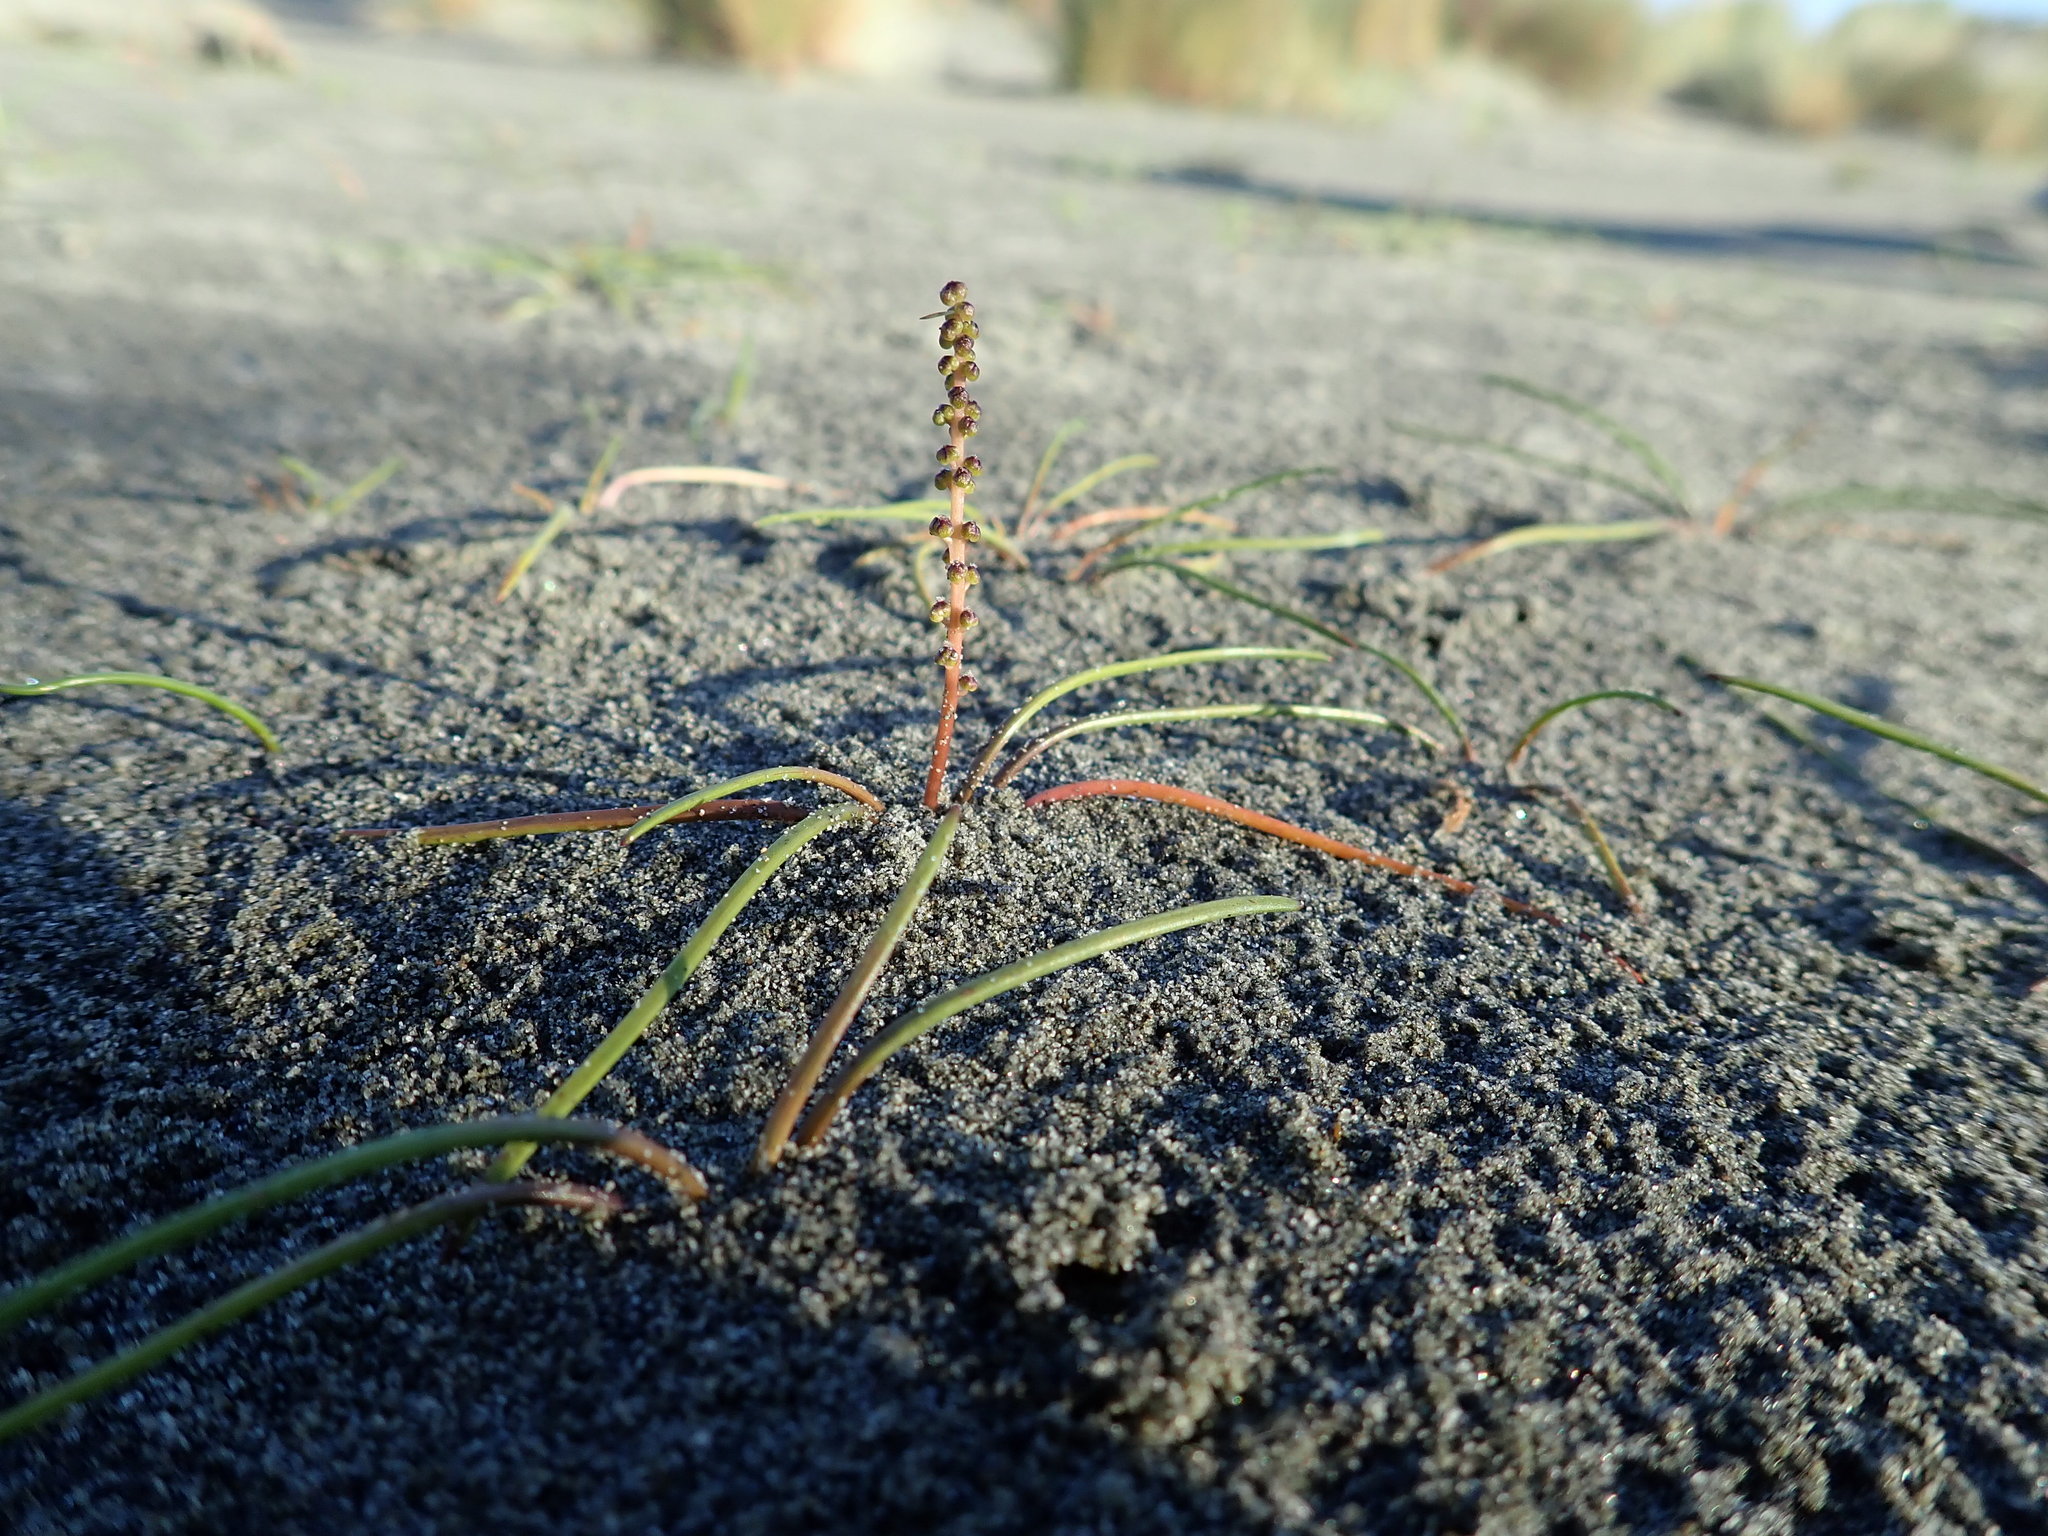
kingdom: Plantae
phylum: Tracheophyta
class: Liliopsida
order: Alismatales
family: Juncaginaceae
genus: Triglochin
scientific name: Triglochin striata
